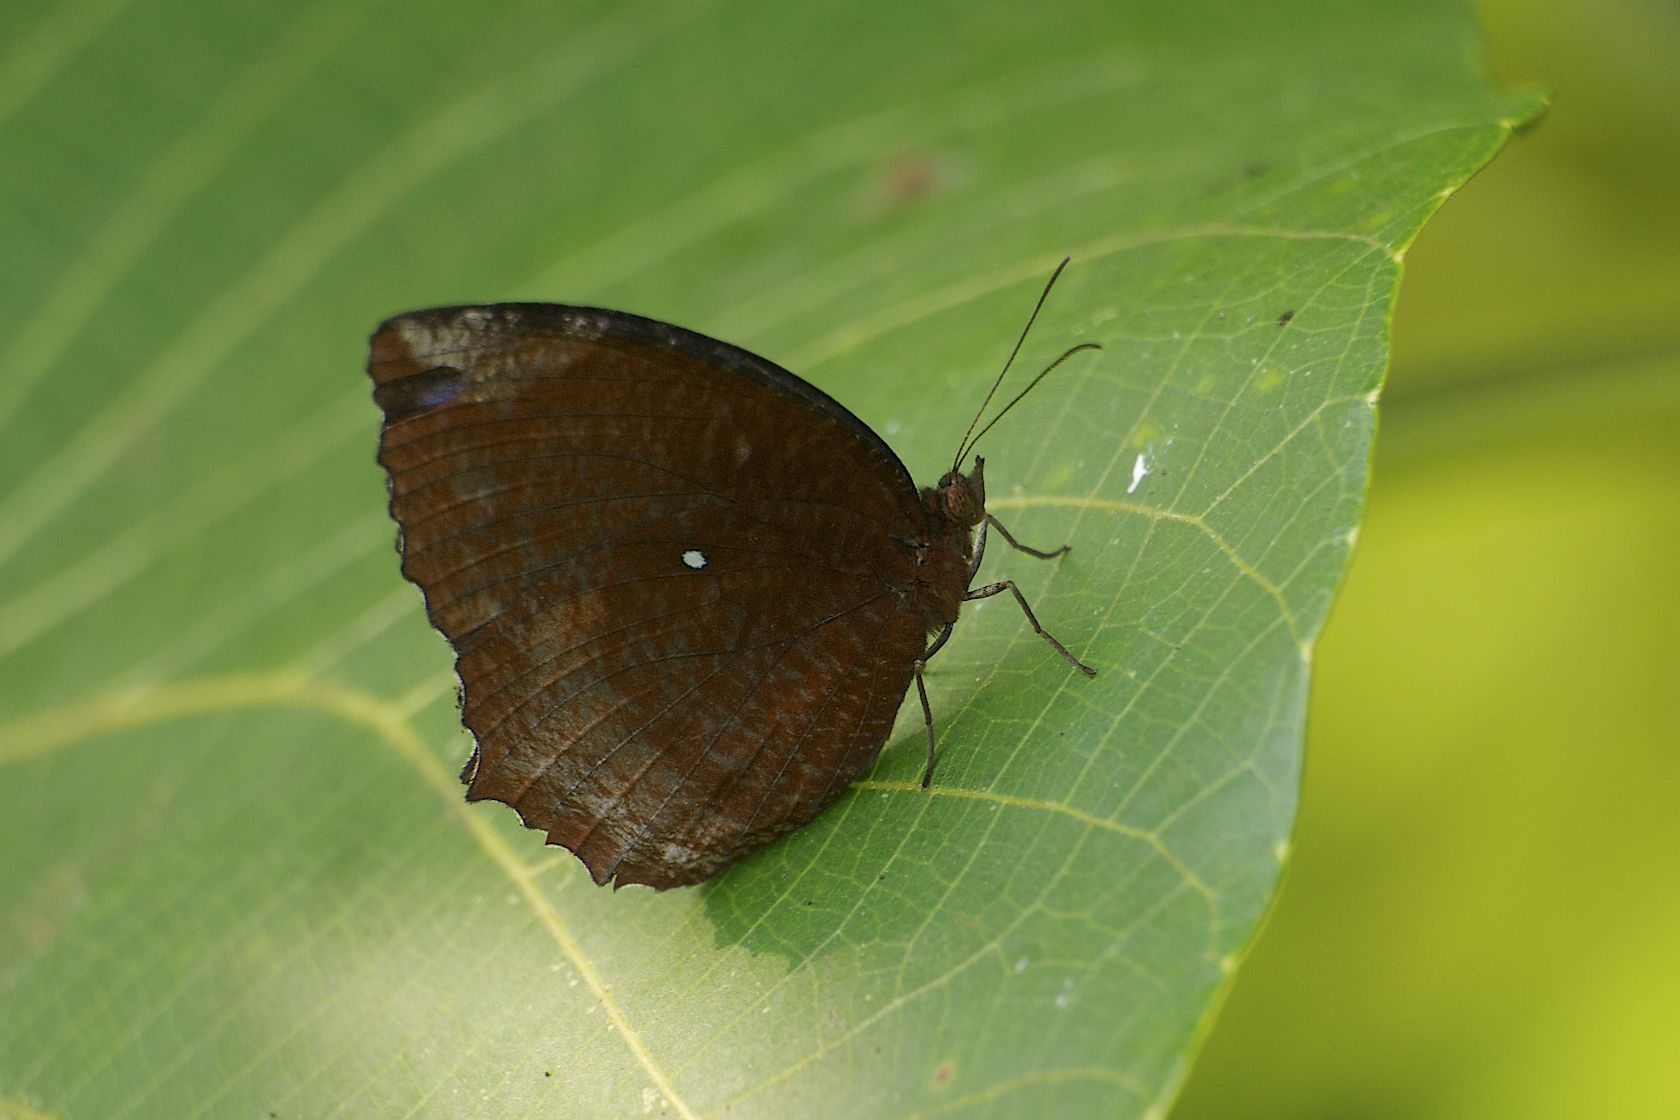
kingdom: Animalia
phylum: Arthropoda
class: Insecta
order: Lepidoptera
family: Nymphalidae
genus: Elymnias
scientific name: Elymnias hypermnestra
